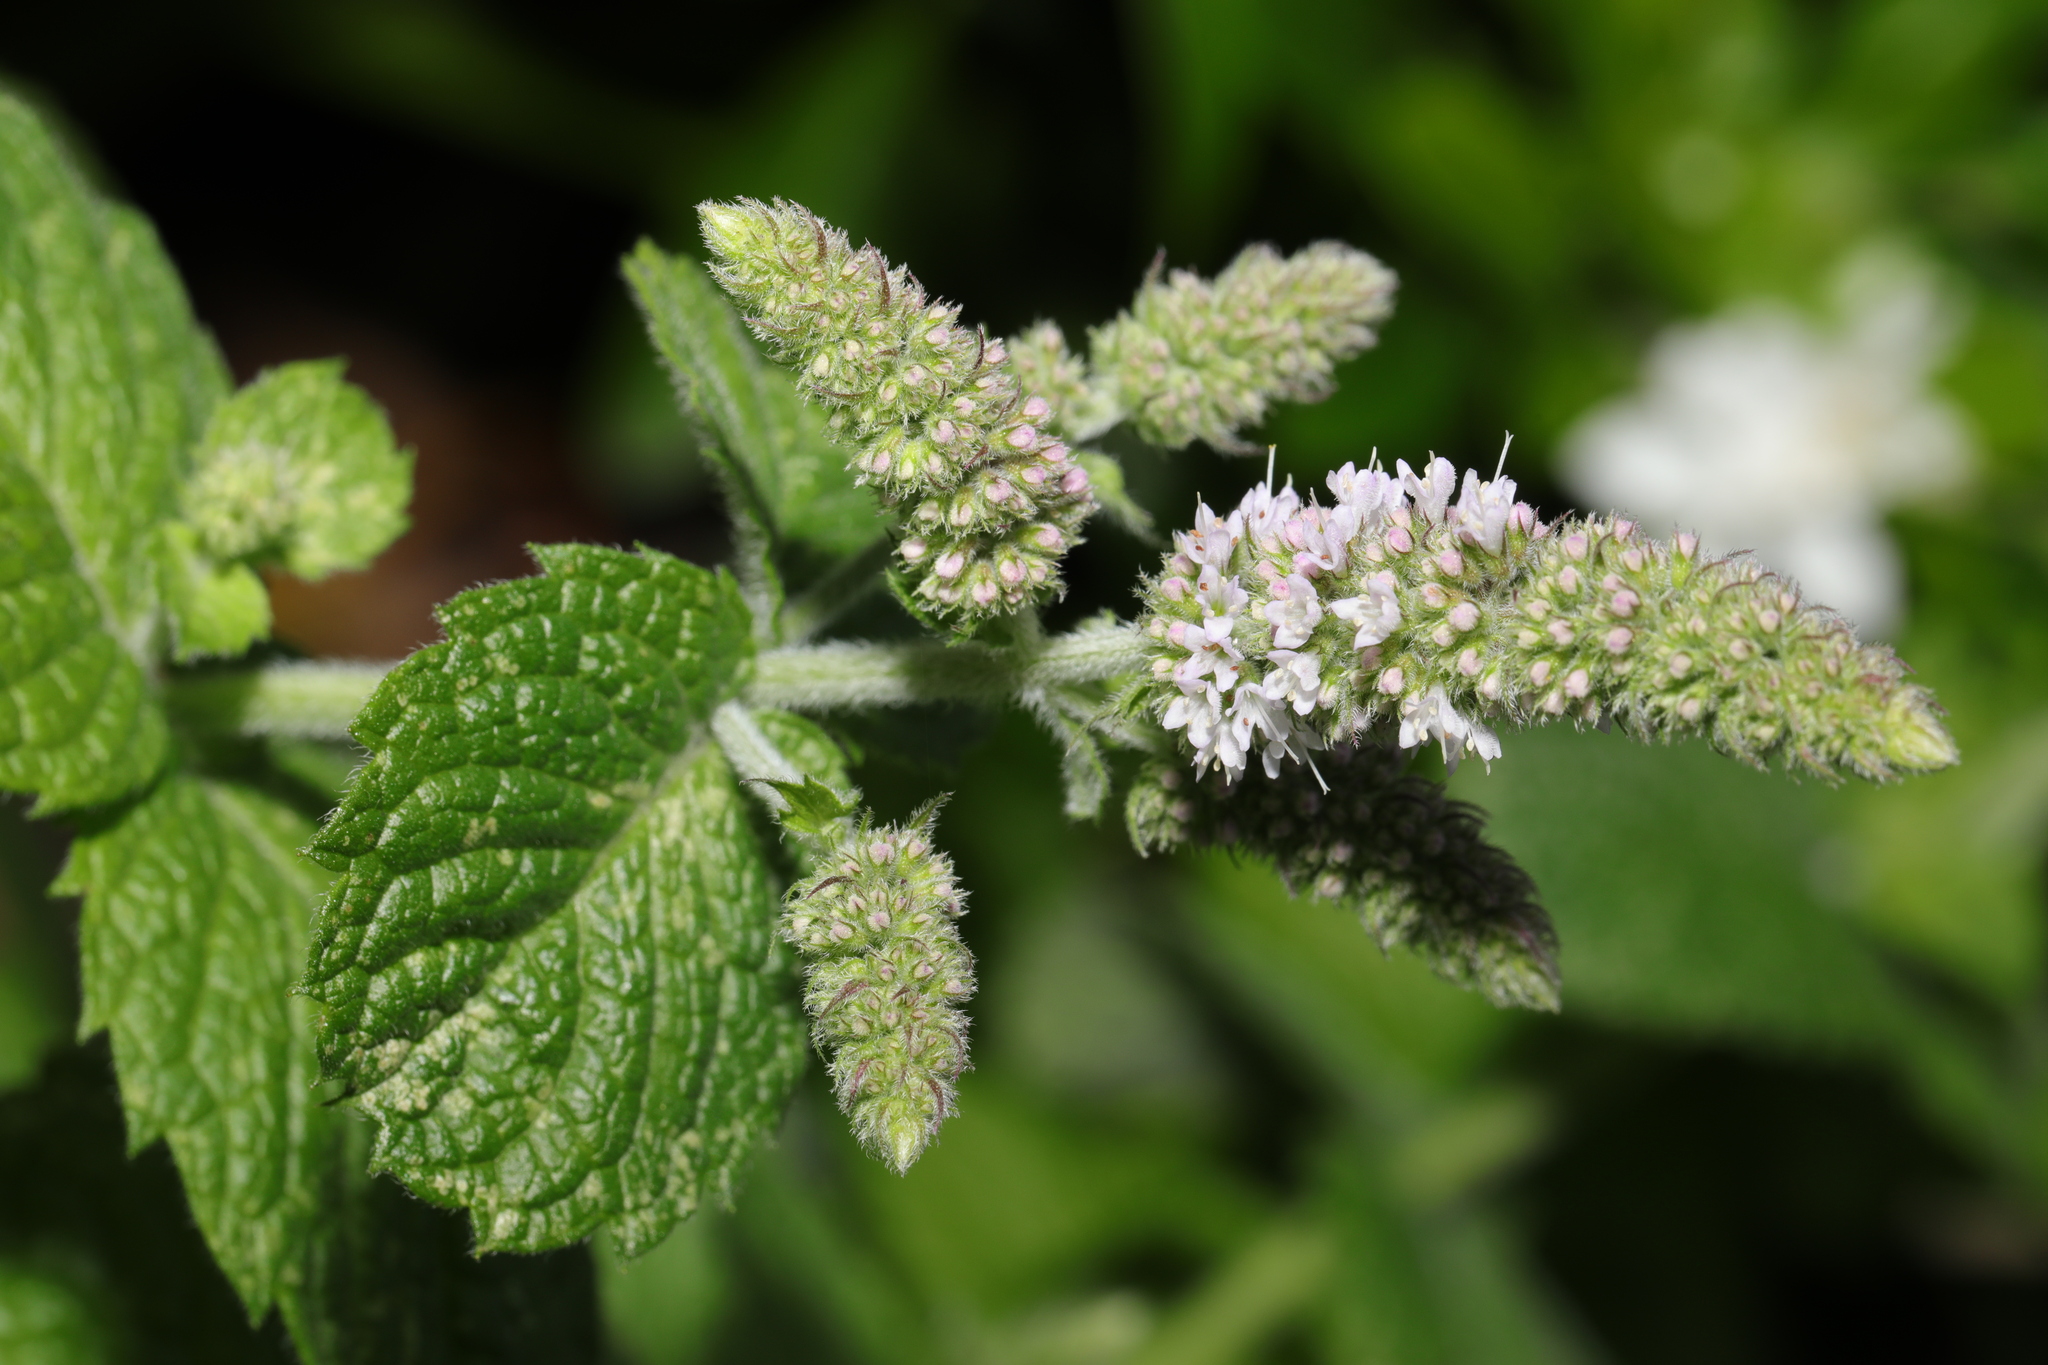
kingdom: Plantae
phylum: Tracheophyta
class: Magnoliopsida
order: Lamiales
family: Lamiaceae
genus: Mentha
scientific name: Mentha suaveolens
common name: Apple mint
